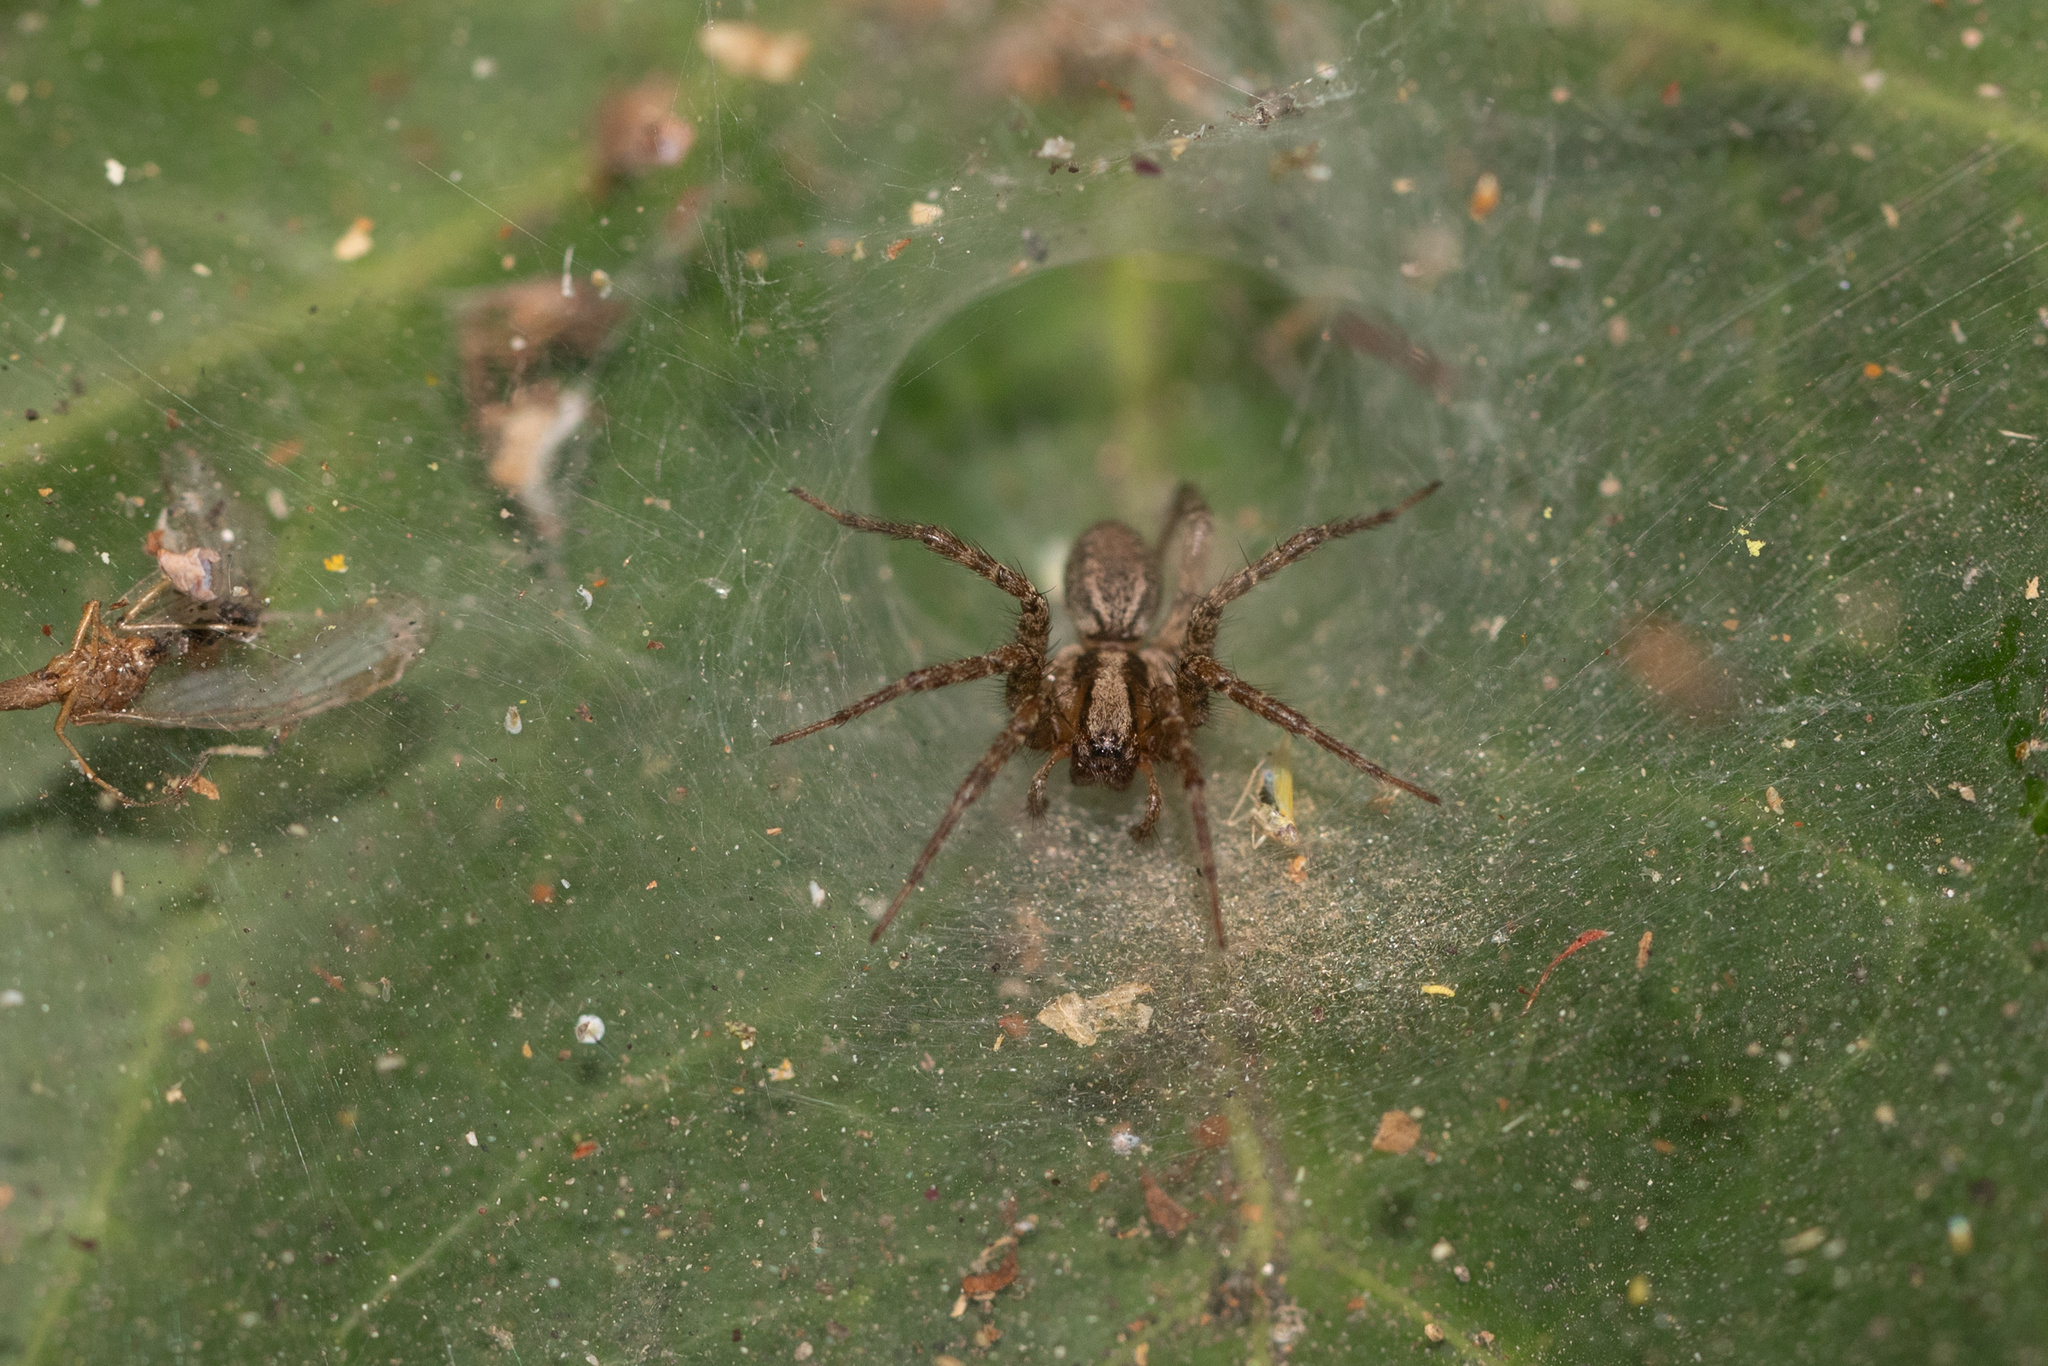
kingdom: Animalia
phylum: Arthropoda
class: Arachnida
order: Araneae
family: Agelenidae
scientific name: Agelenidae
